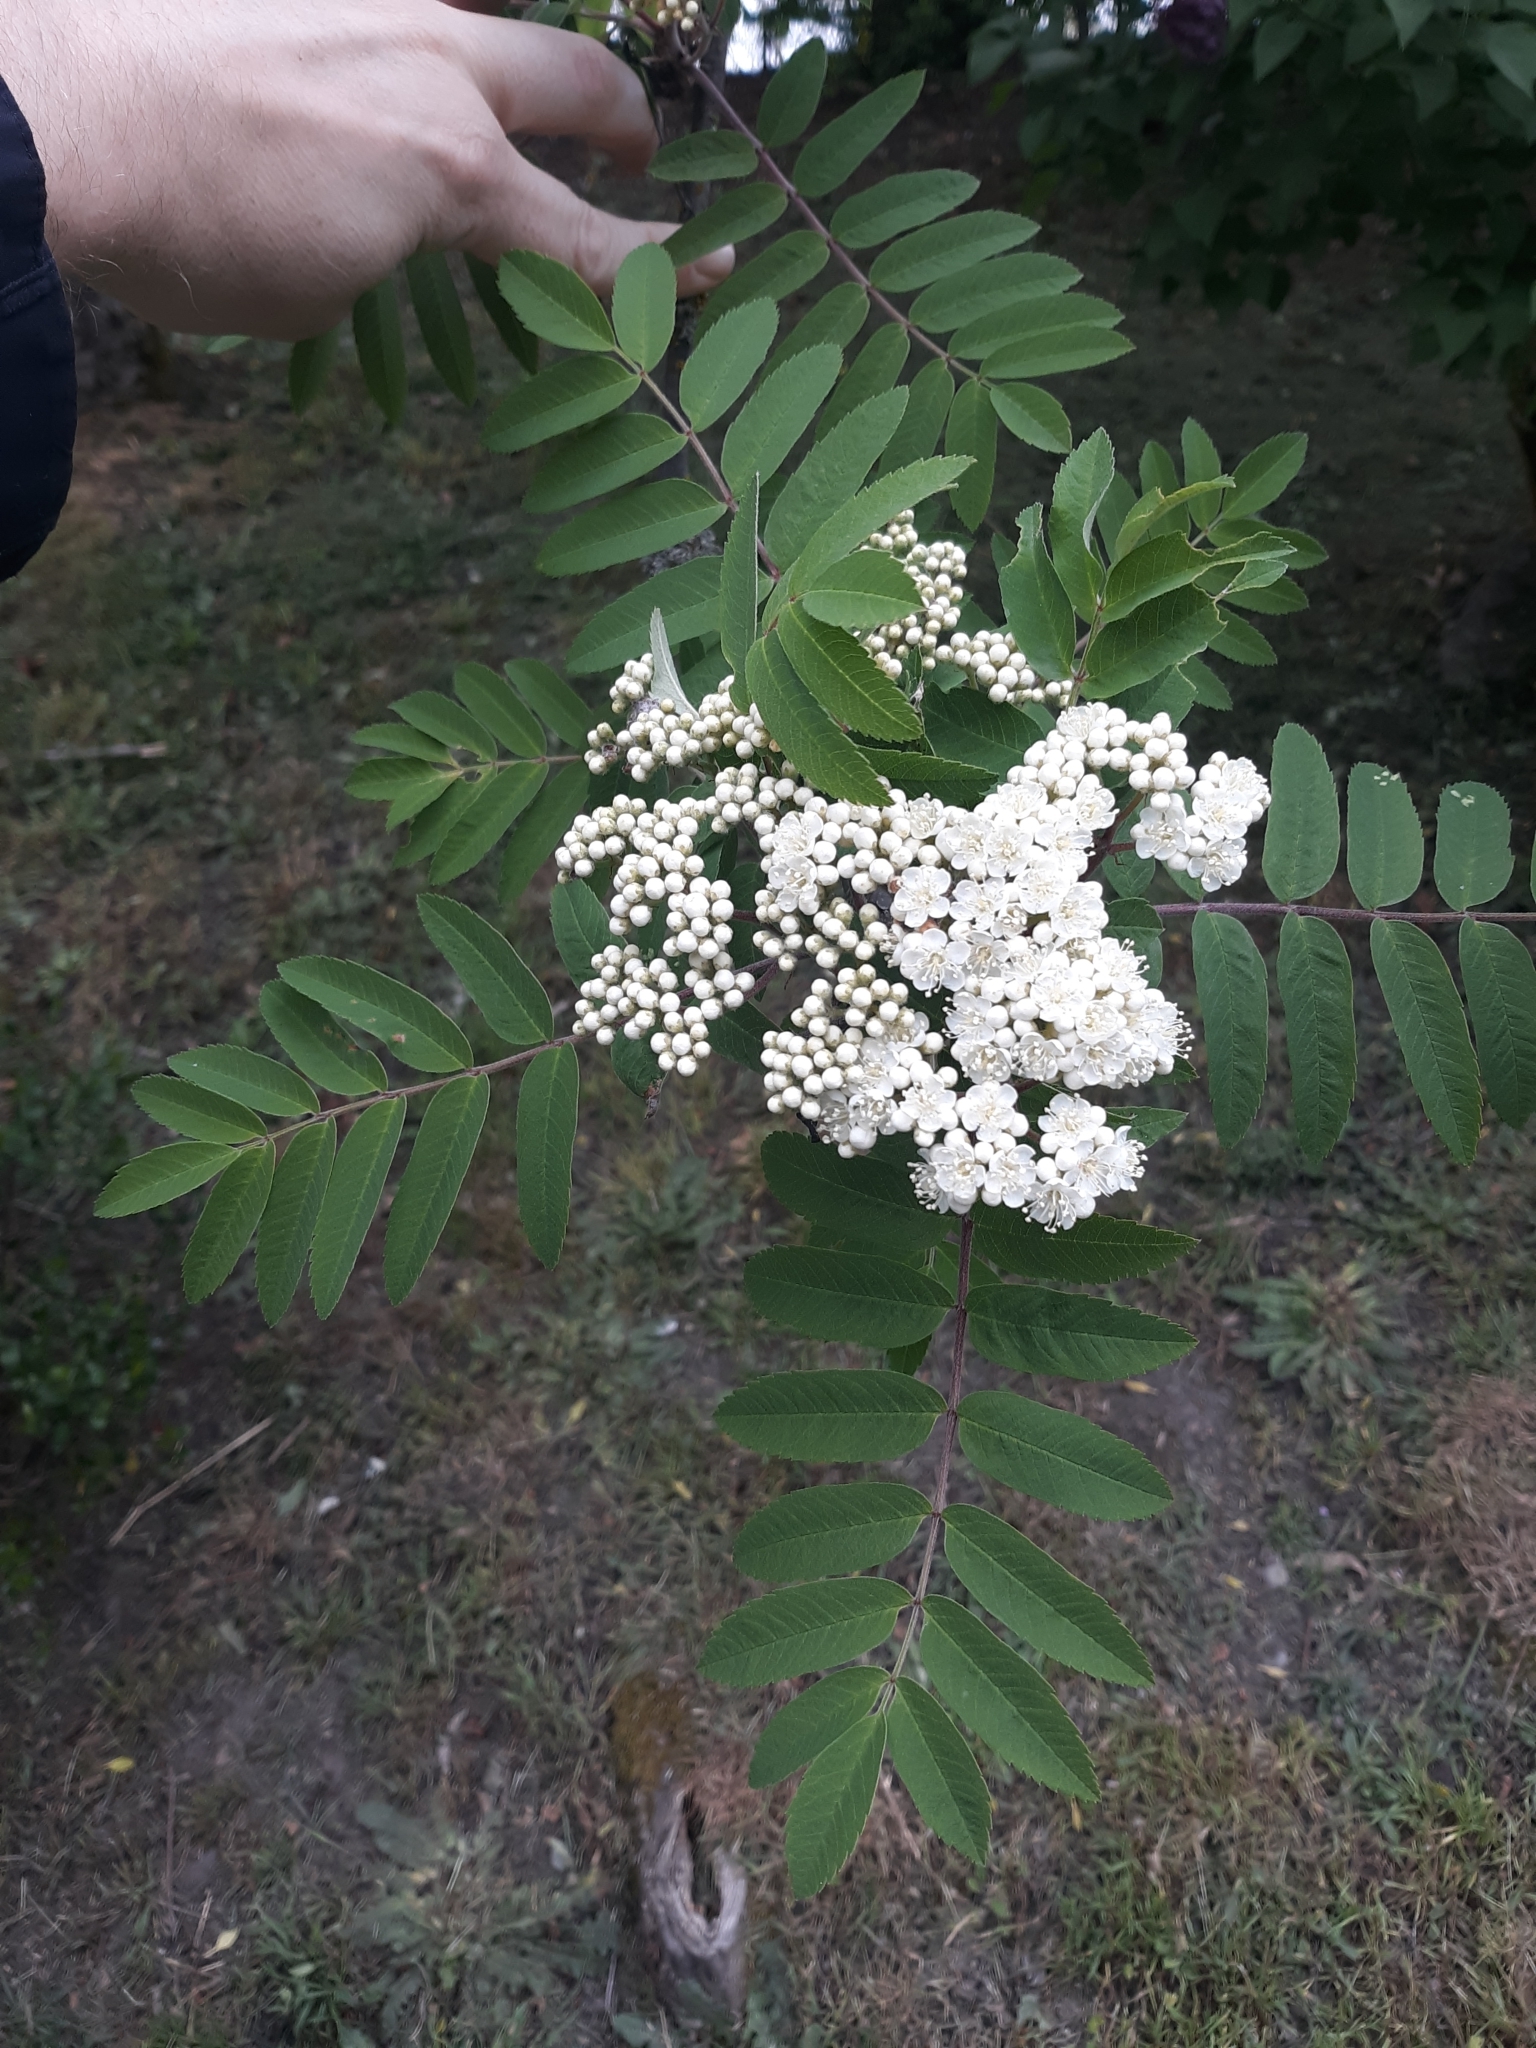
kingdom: Plantae
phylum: Tracheophyta
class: Magnoliopsida
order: Rosales
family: Rosaceae
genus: Sorbus
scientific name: Sorbus aucuparia
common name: Rowan
